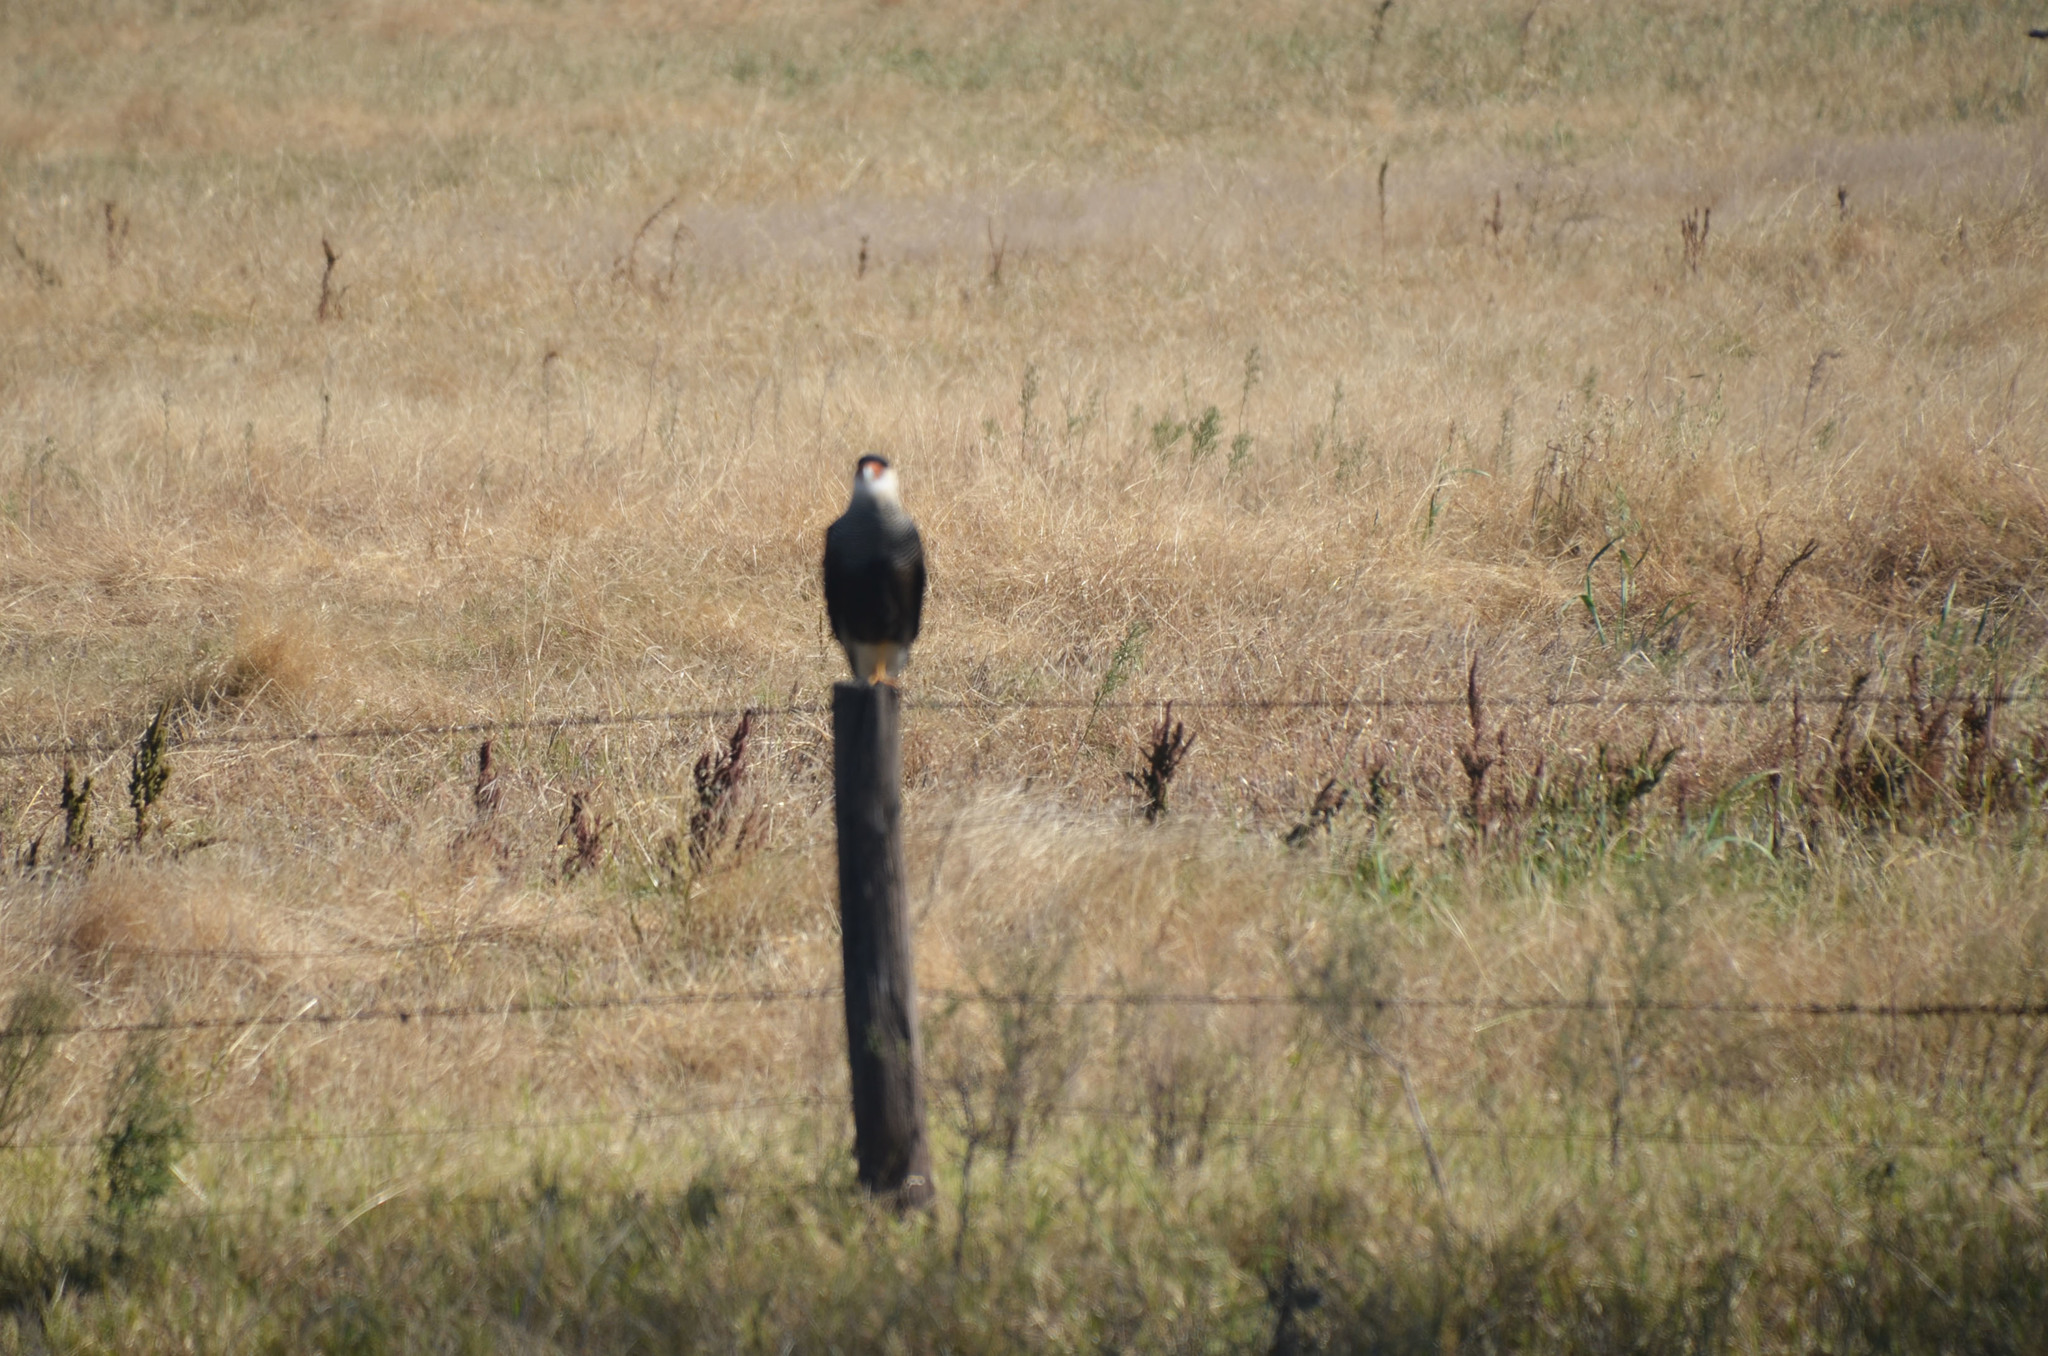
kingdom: Animalia
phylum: Chordata
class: Aves
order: Falconiformes
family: Falconidae
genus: Caracara
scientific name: Caracara plancus
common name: Southern caracara
